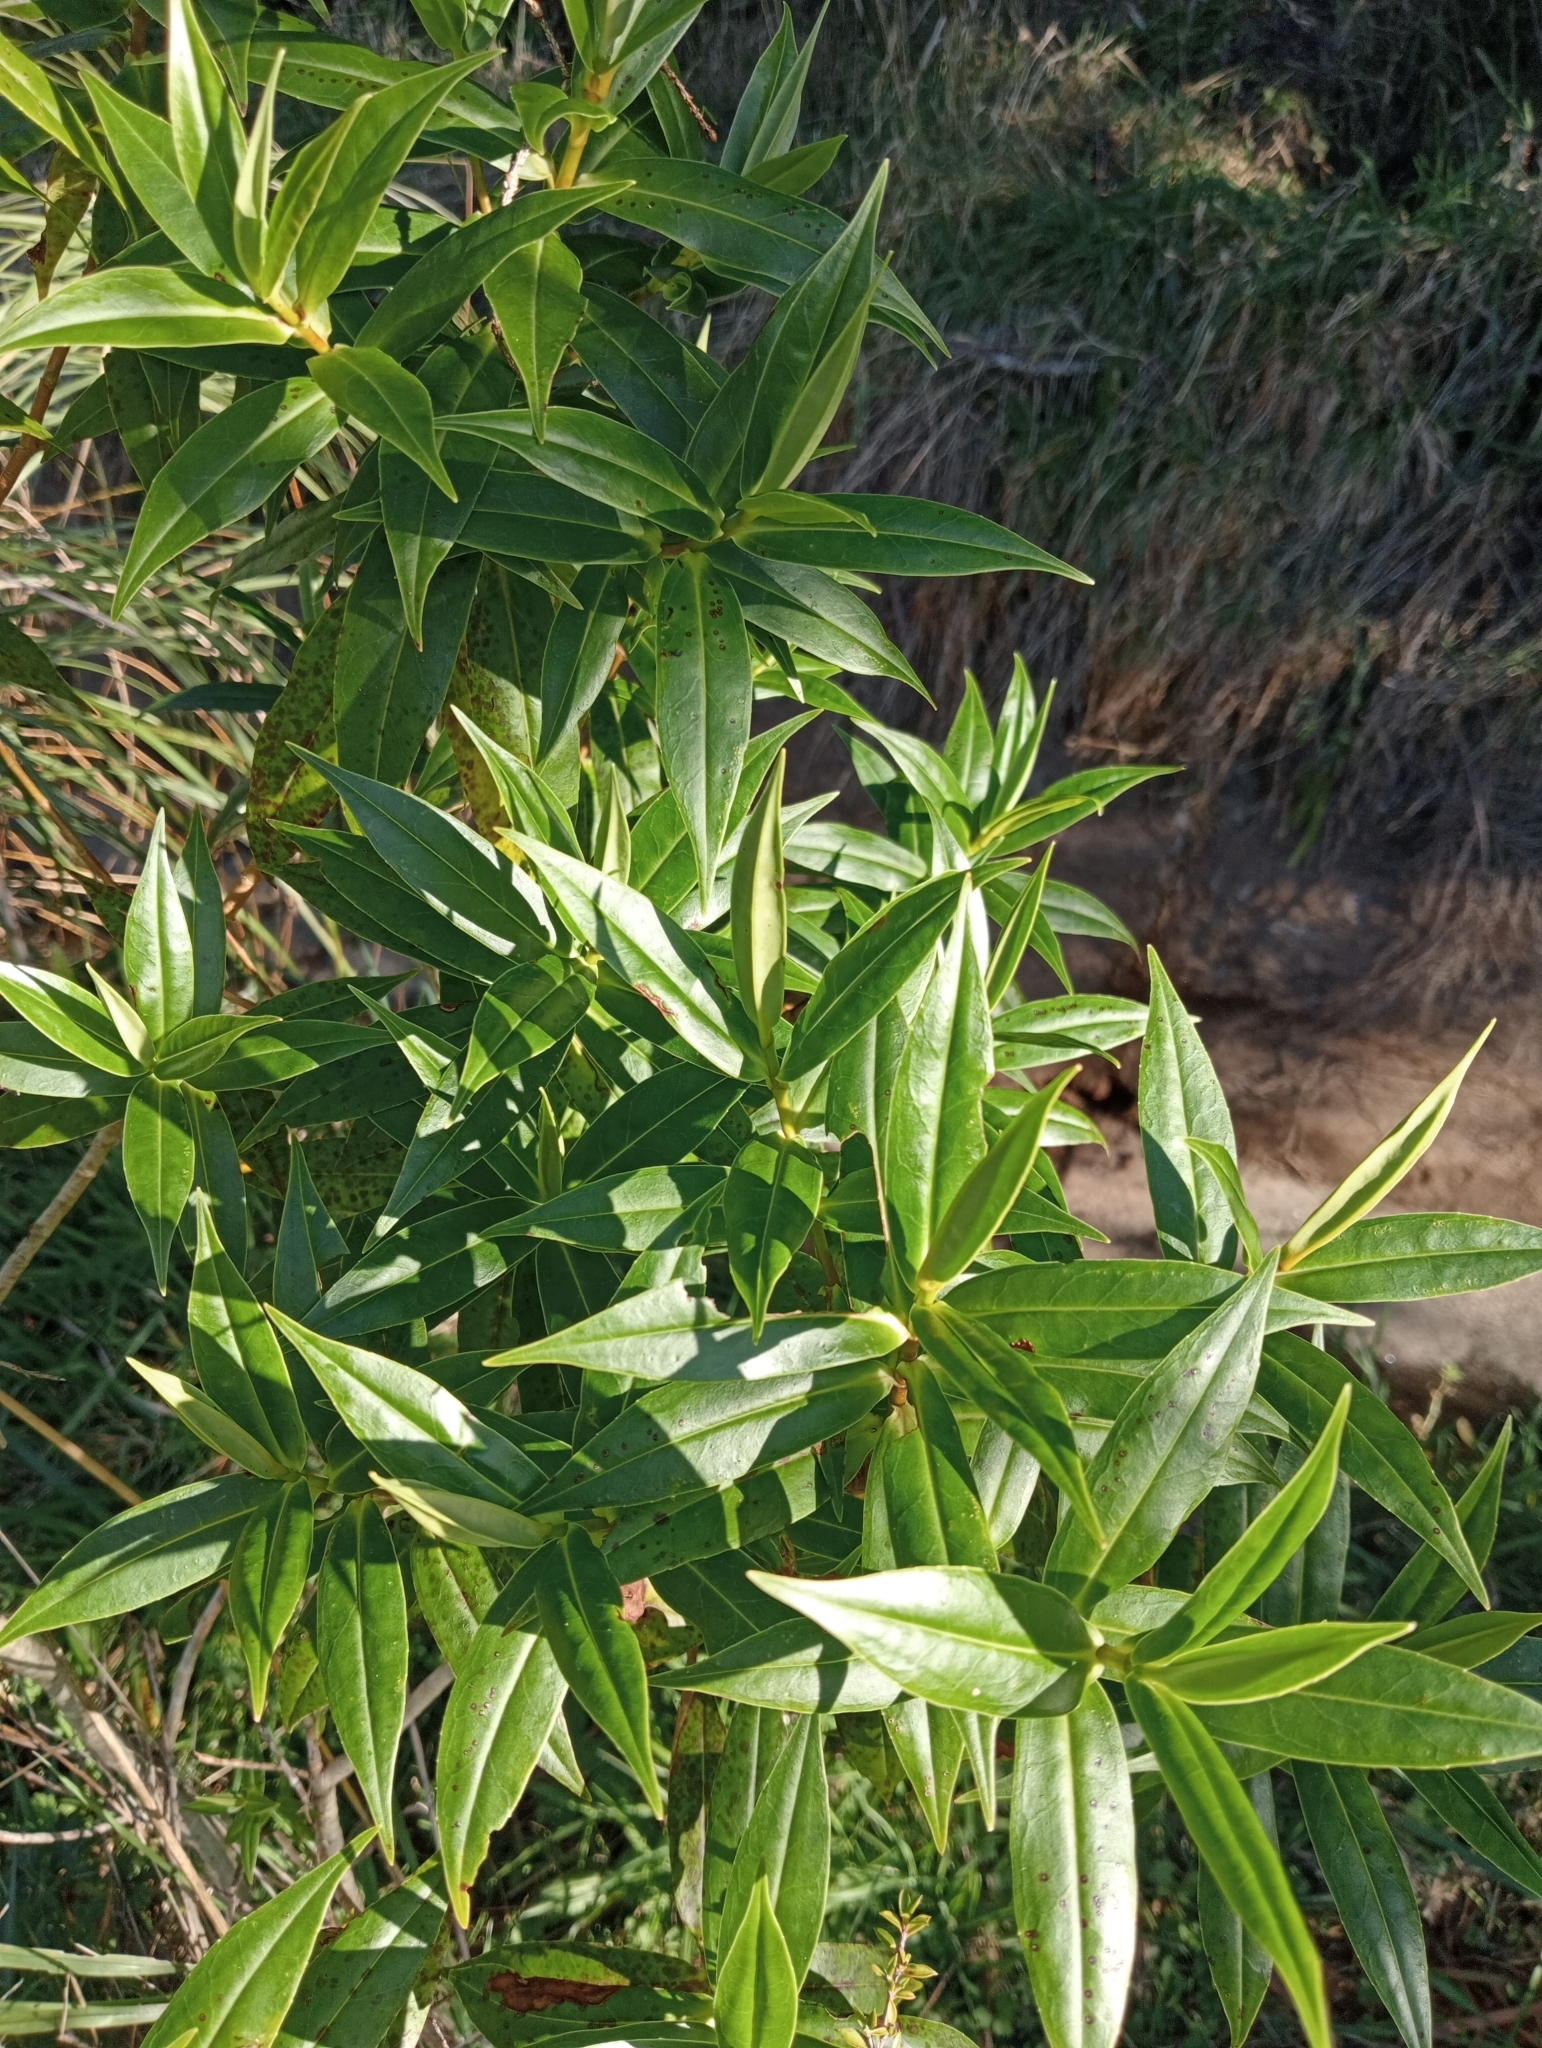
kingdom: Plantae
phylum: Tracheophyta
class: Magnoliopsida
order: Lamiales
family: Plantaginaceae
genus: Veronica
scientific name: Veronica salicifolia
